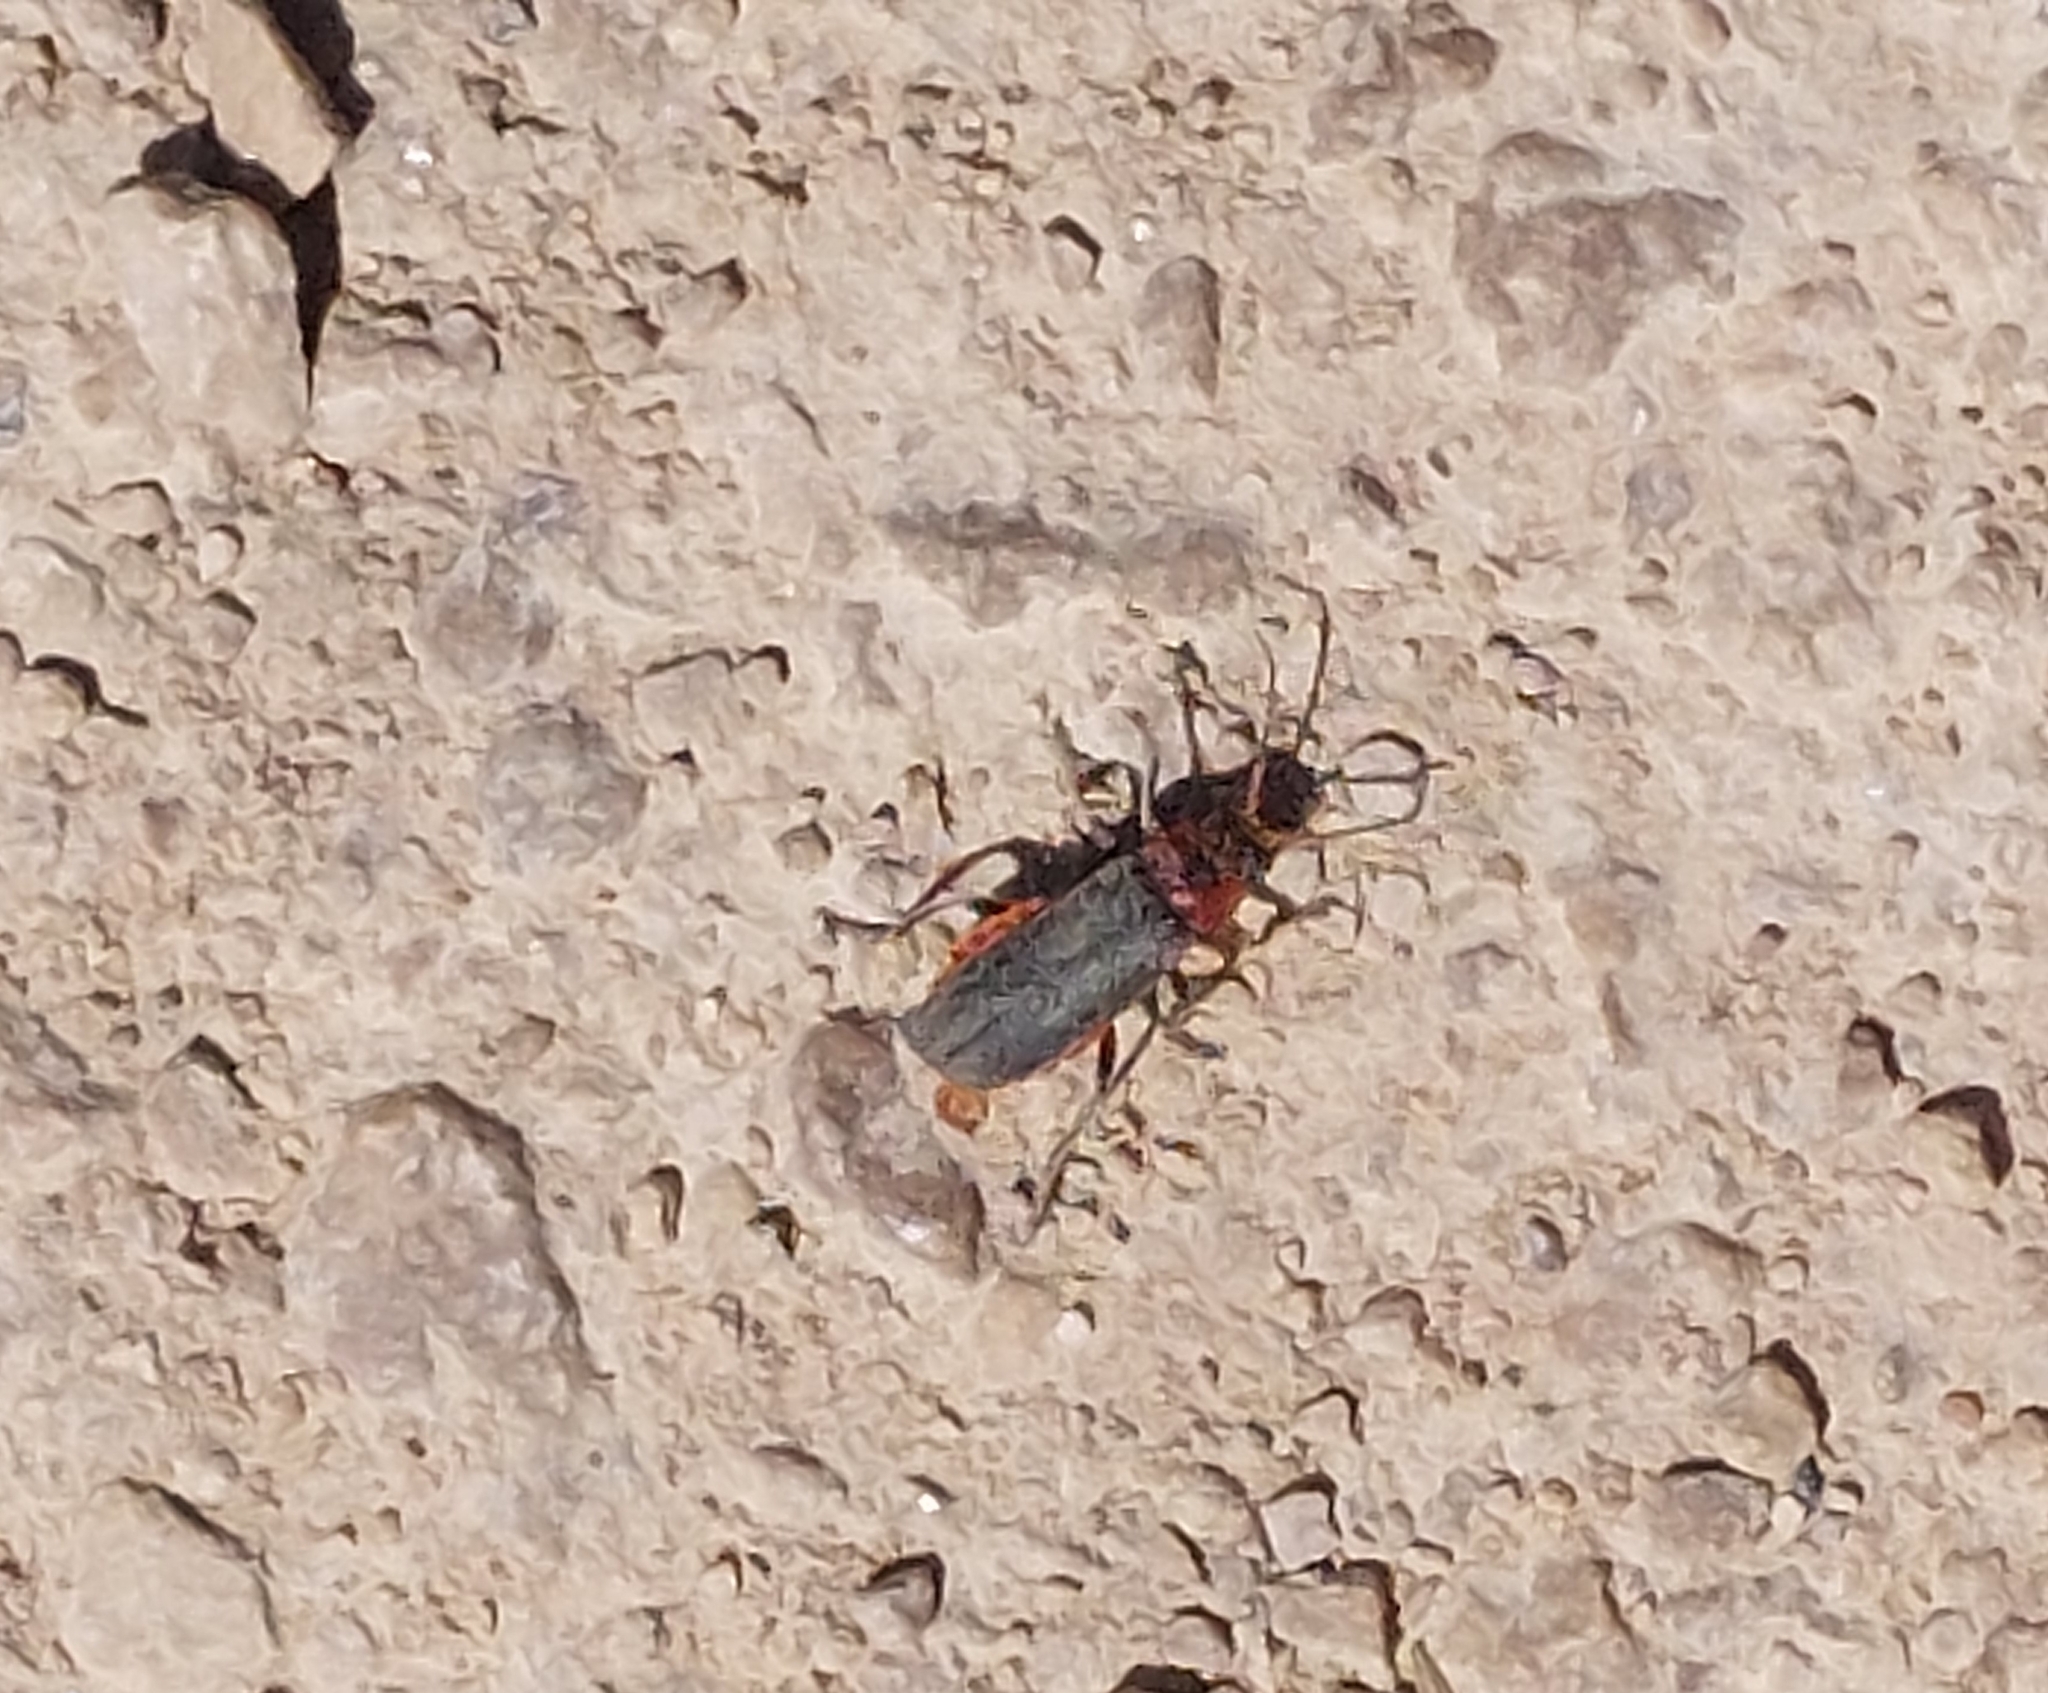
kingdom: Animalia
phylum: Arthropoda
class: Insecta
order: Coleoptera
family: Cantharidae
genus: Cantharis
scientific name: Cantharis rustica
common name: Soldier beetle
